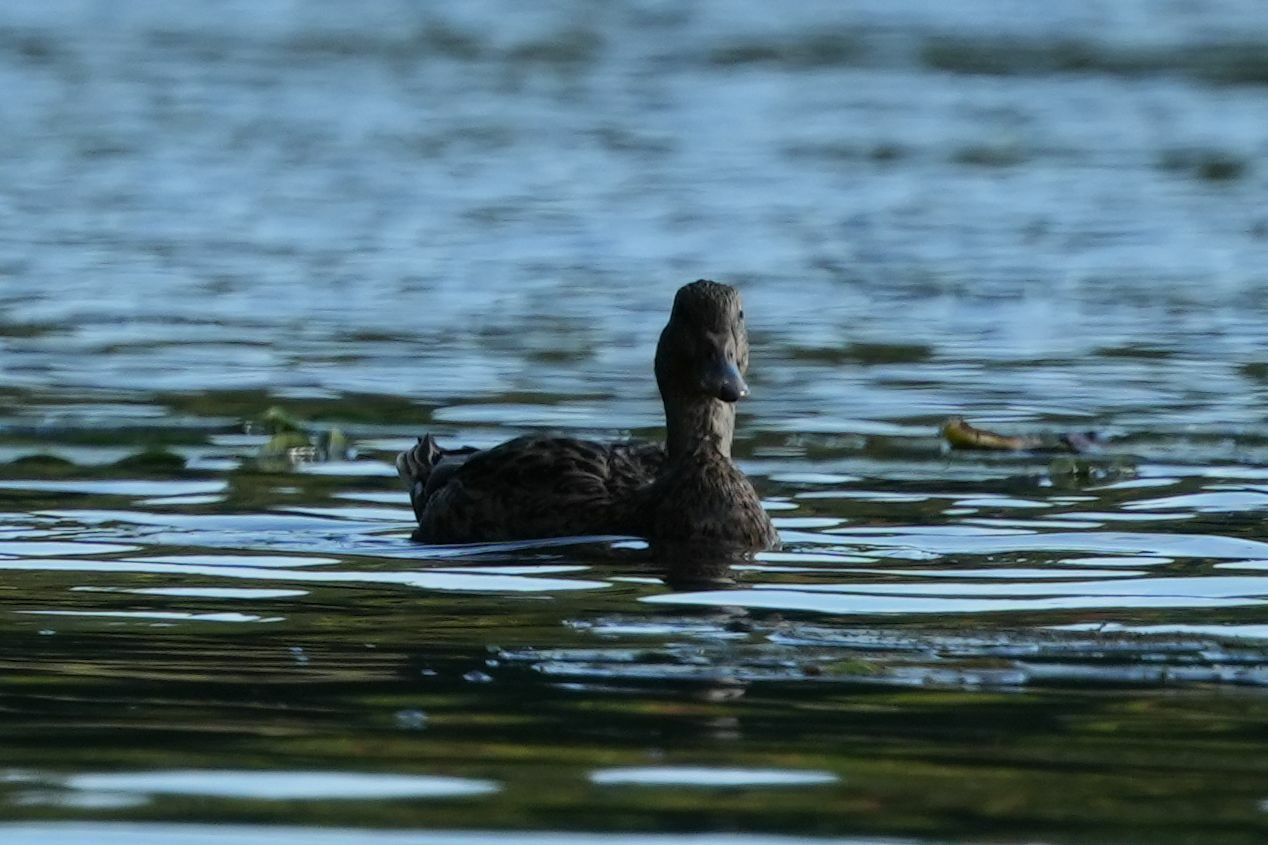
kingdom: Animalia
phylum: Chordata
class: Aves
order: Anseriformes
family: Anatidae
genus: Anas
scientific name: Anas platyrhynchos
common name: Mallard
